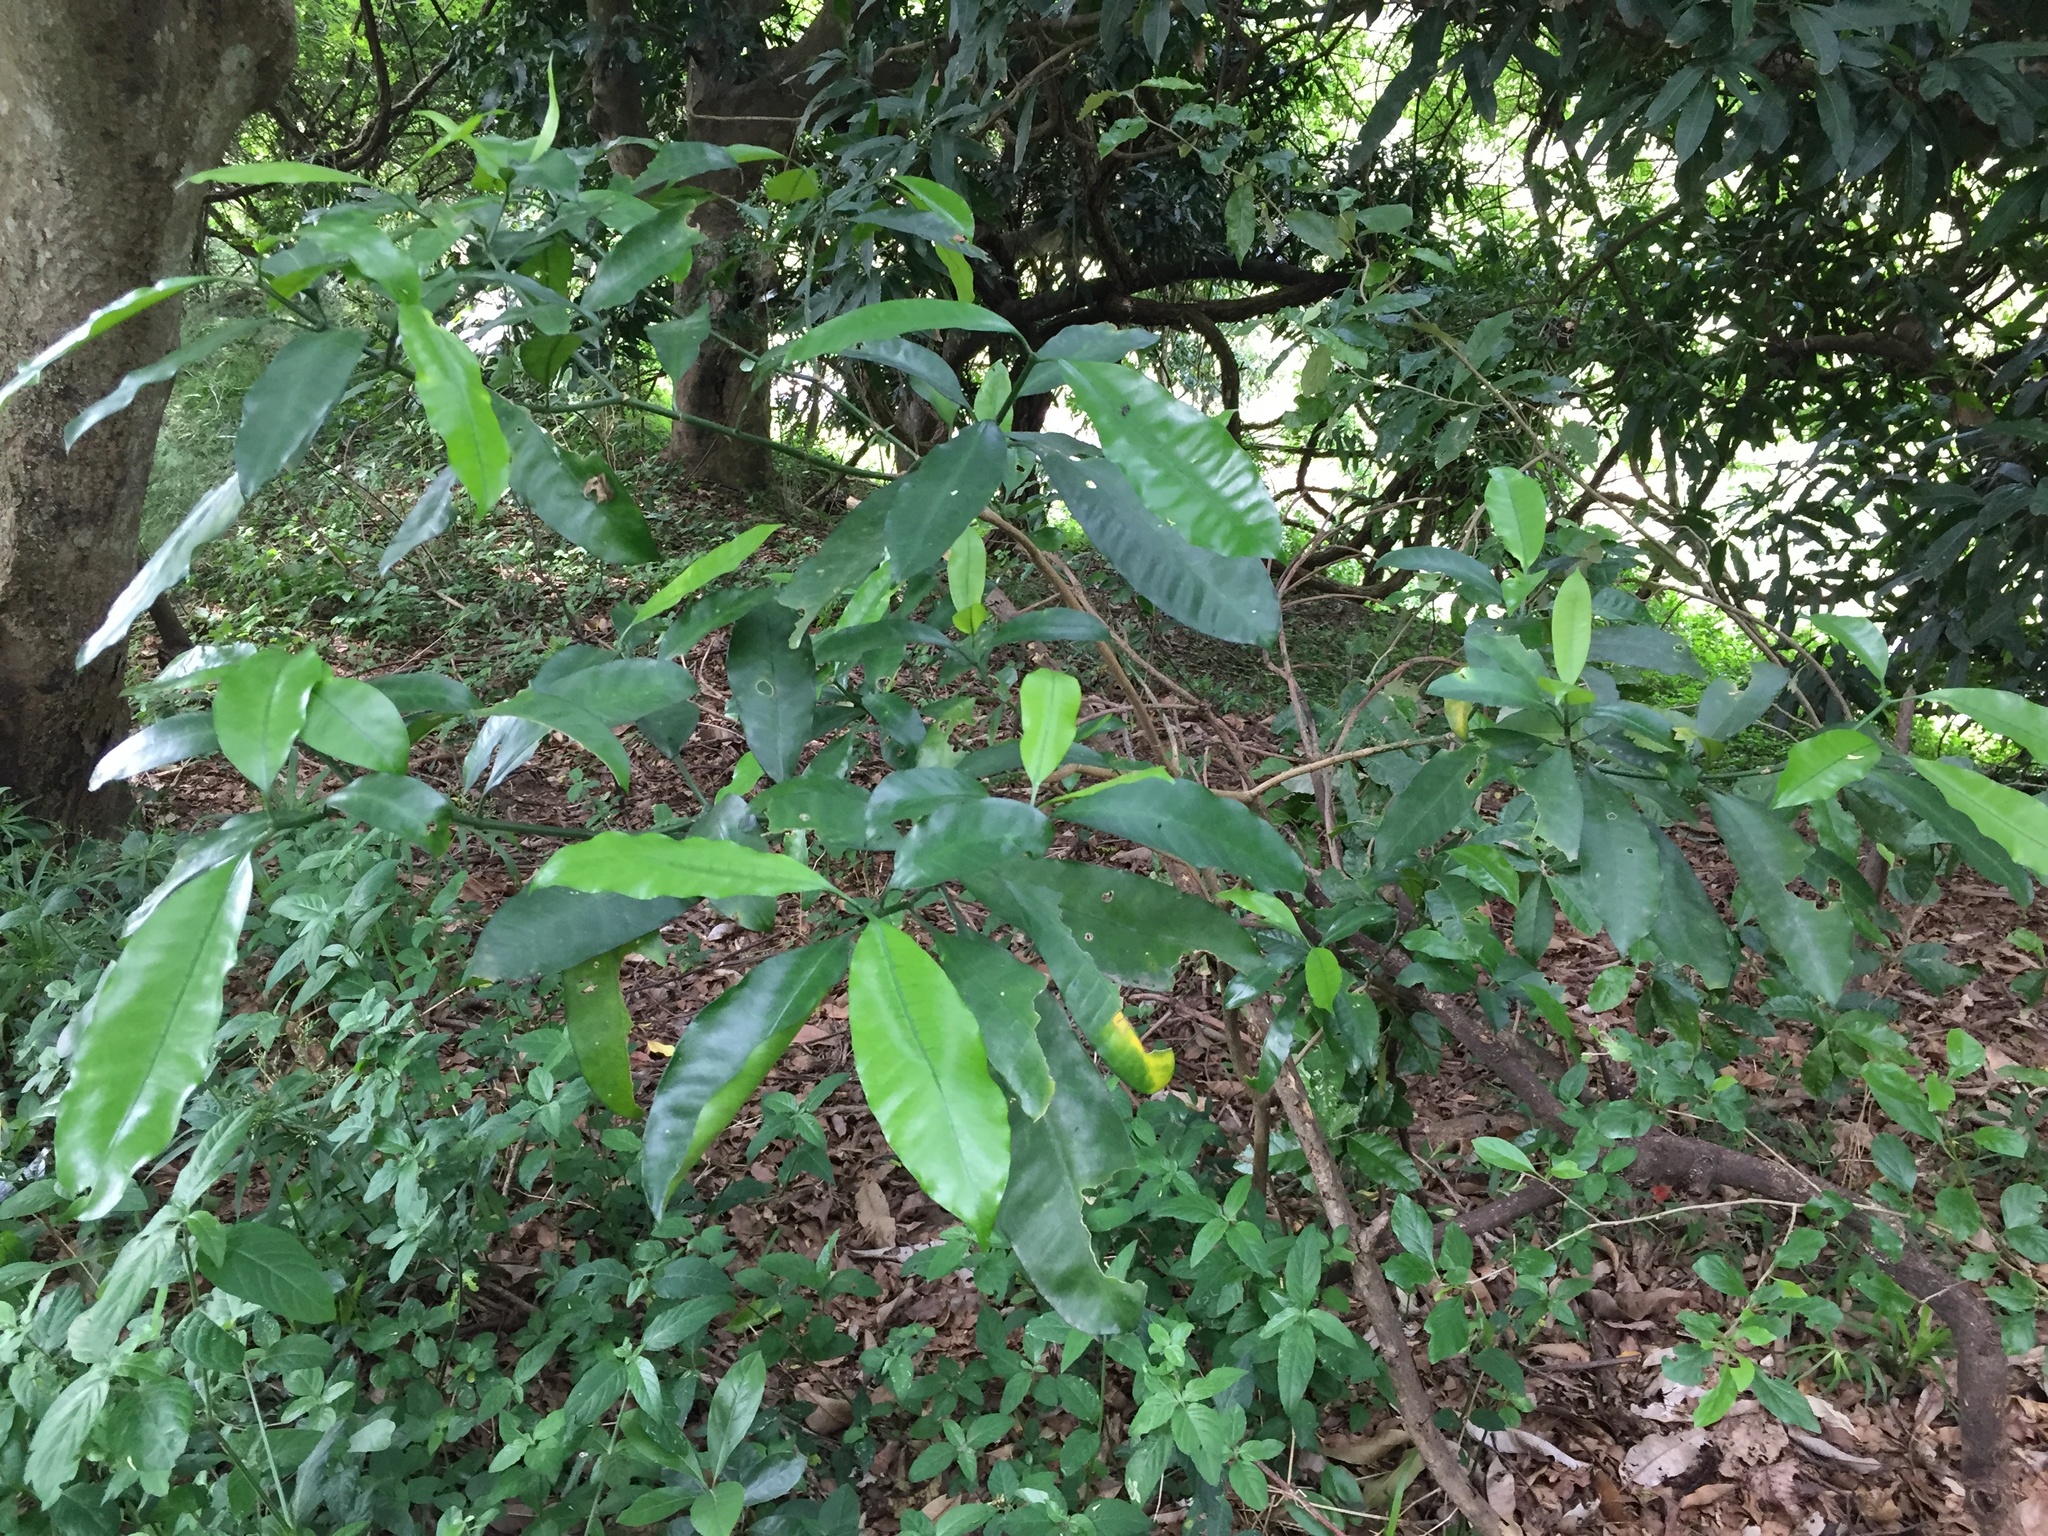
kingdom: Plantae
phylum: Tracheophyta
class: Magnoliopsida
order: Gentianales
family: Apocynaceae
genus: Tabernaemontana
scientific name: Tabernaemontana ventricosa
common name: Forest toad-tree
